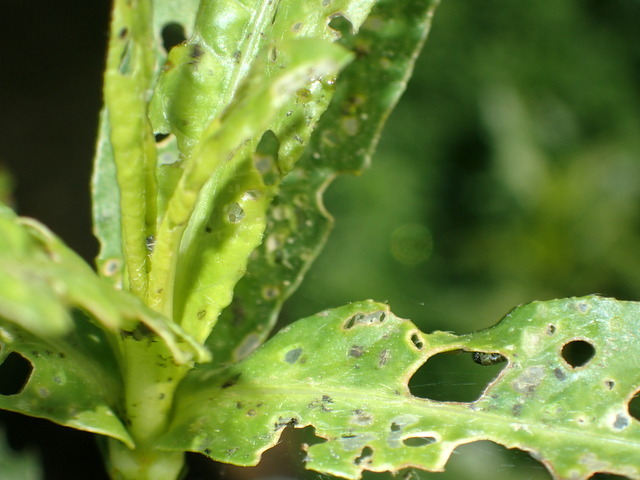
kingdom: Animalia
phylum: Arthropoda
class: Insecta
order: Coleoptera
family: Chrysomelidae
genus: Agasicles
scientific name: Agasicles hygrophila
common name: Alligatorweed flea beetle
